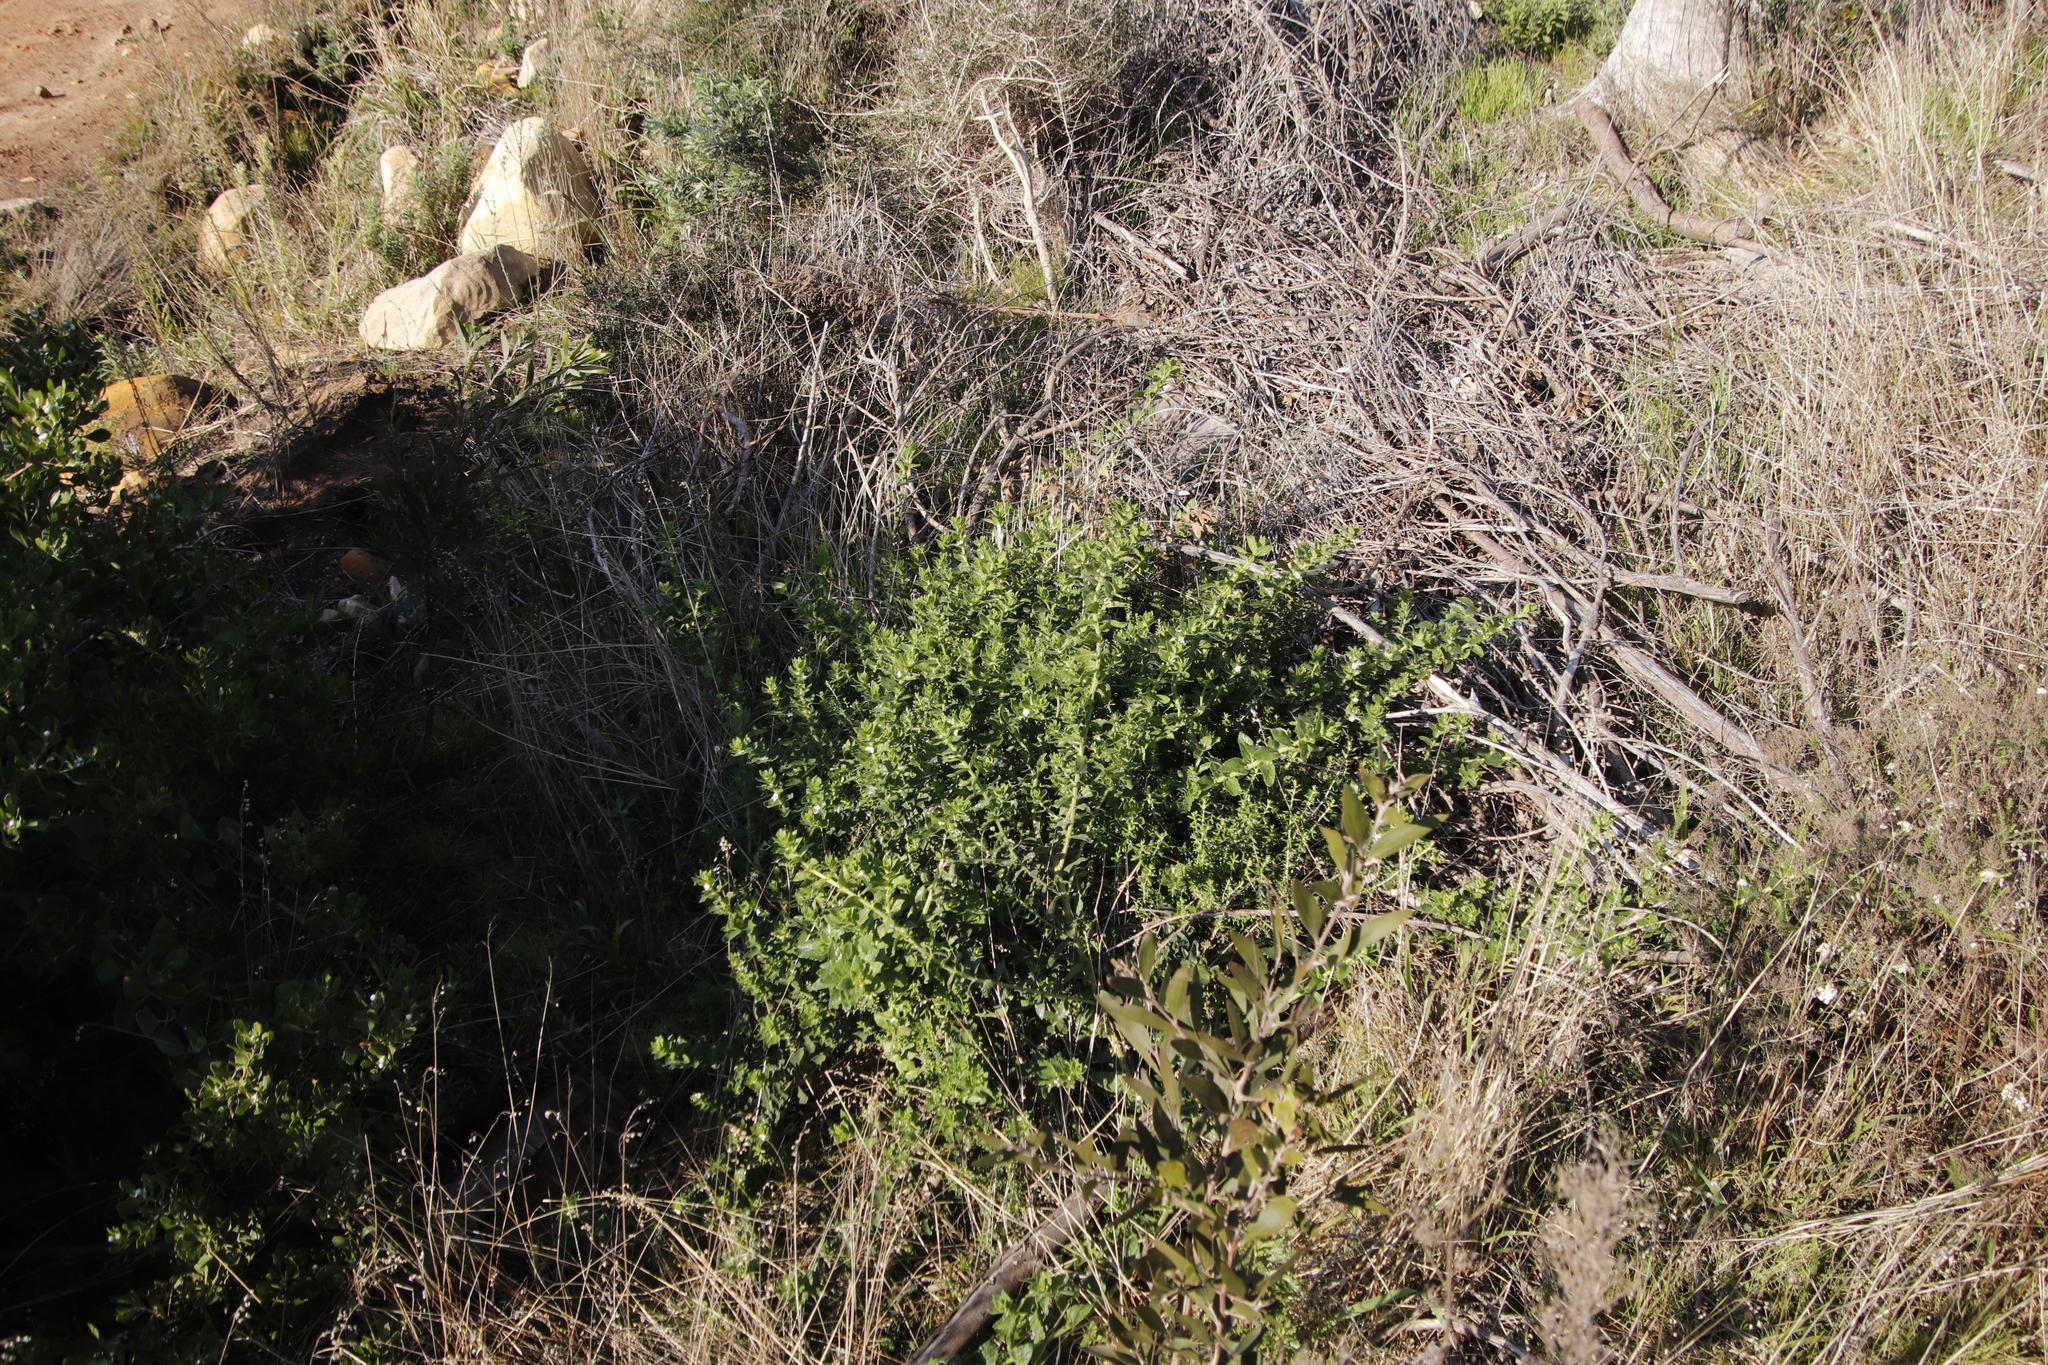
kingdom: Plantae
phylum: Tracheophyta
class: Magnoliopsida
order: Lamiales
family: Scrophulariaceae
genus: Oftia
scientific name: Oftia africana
